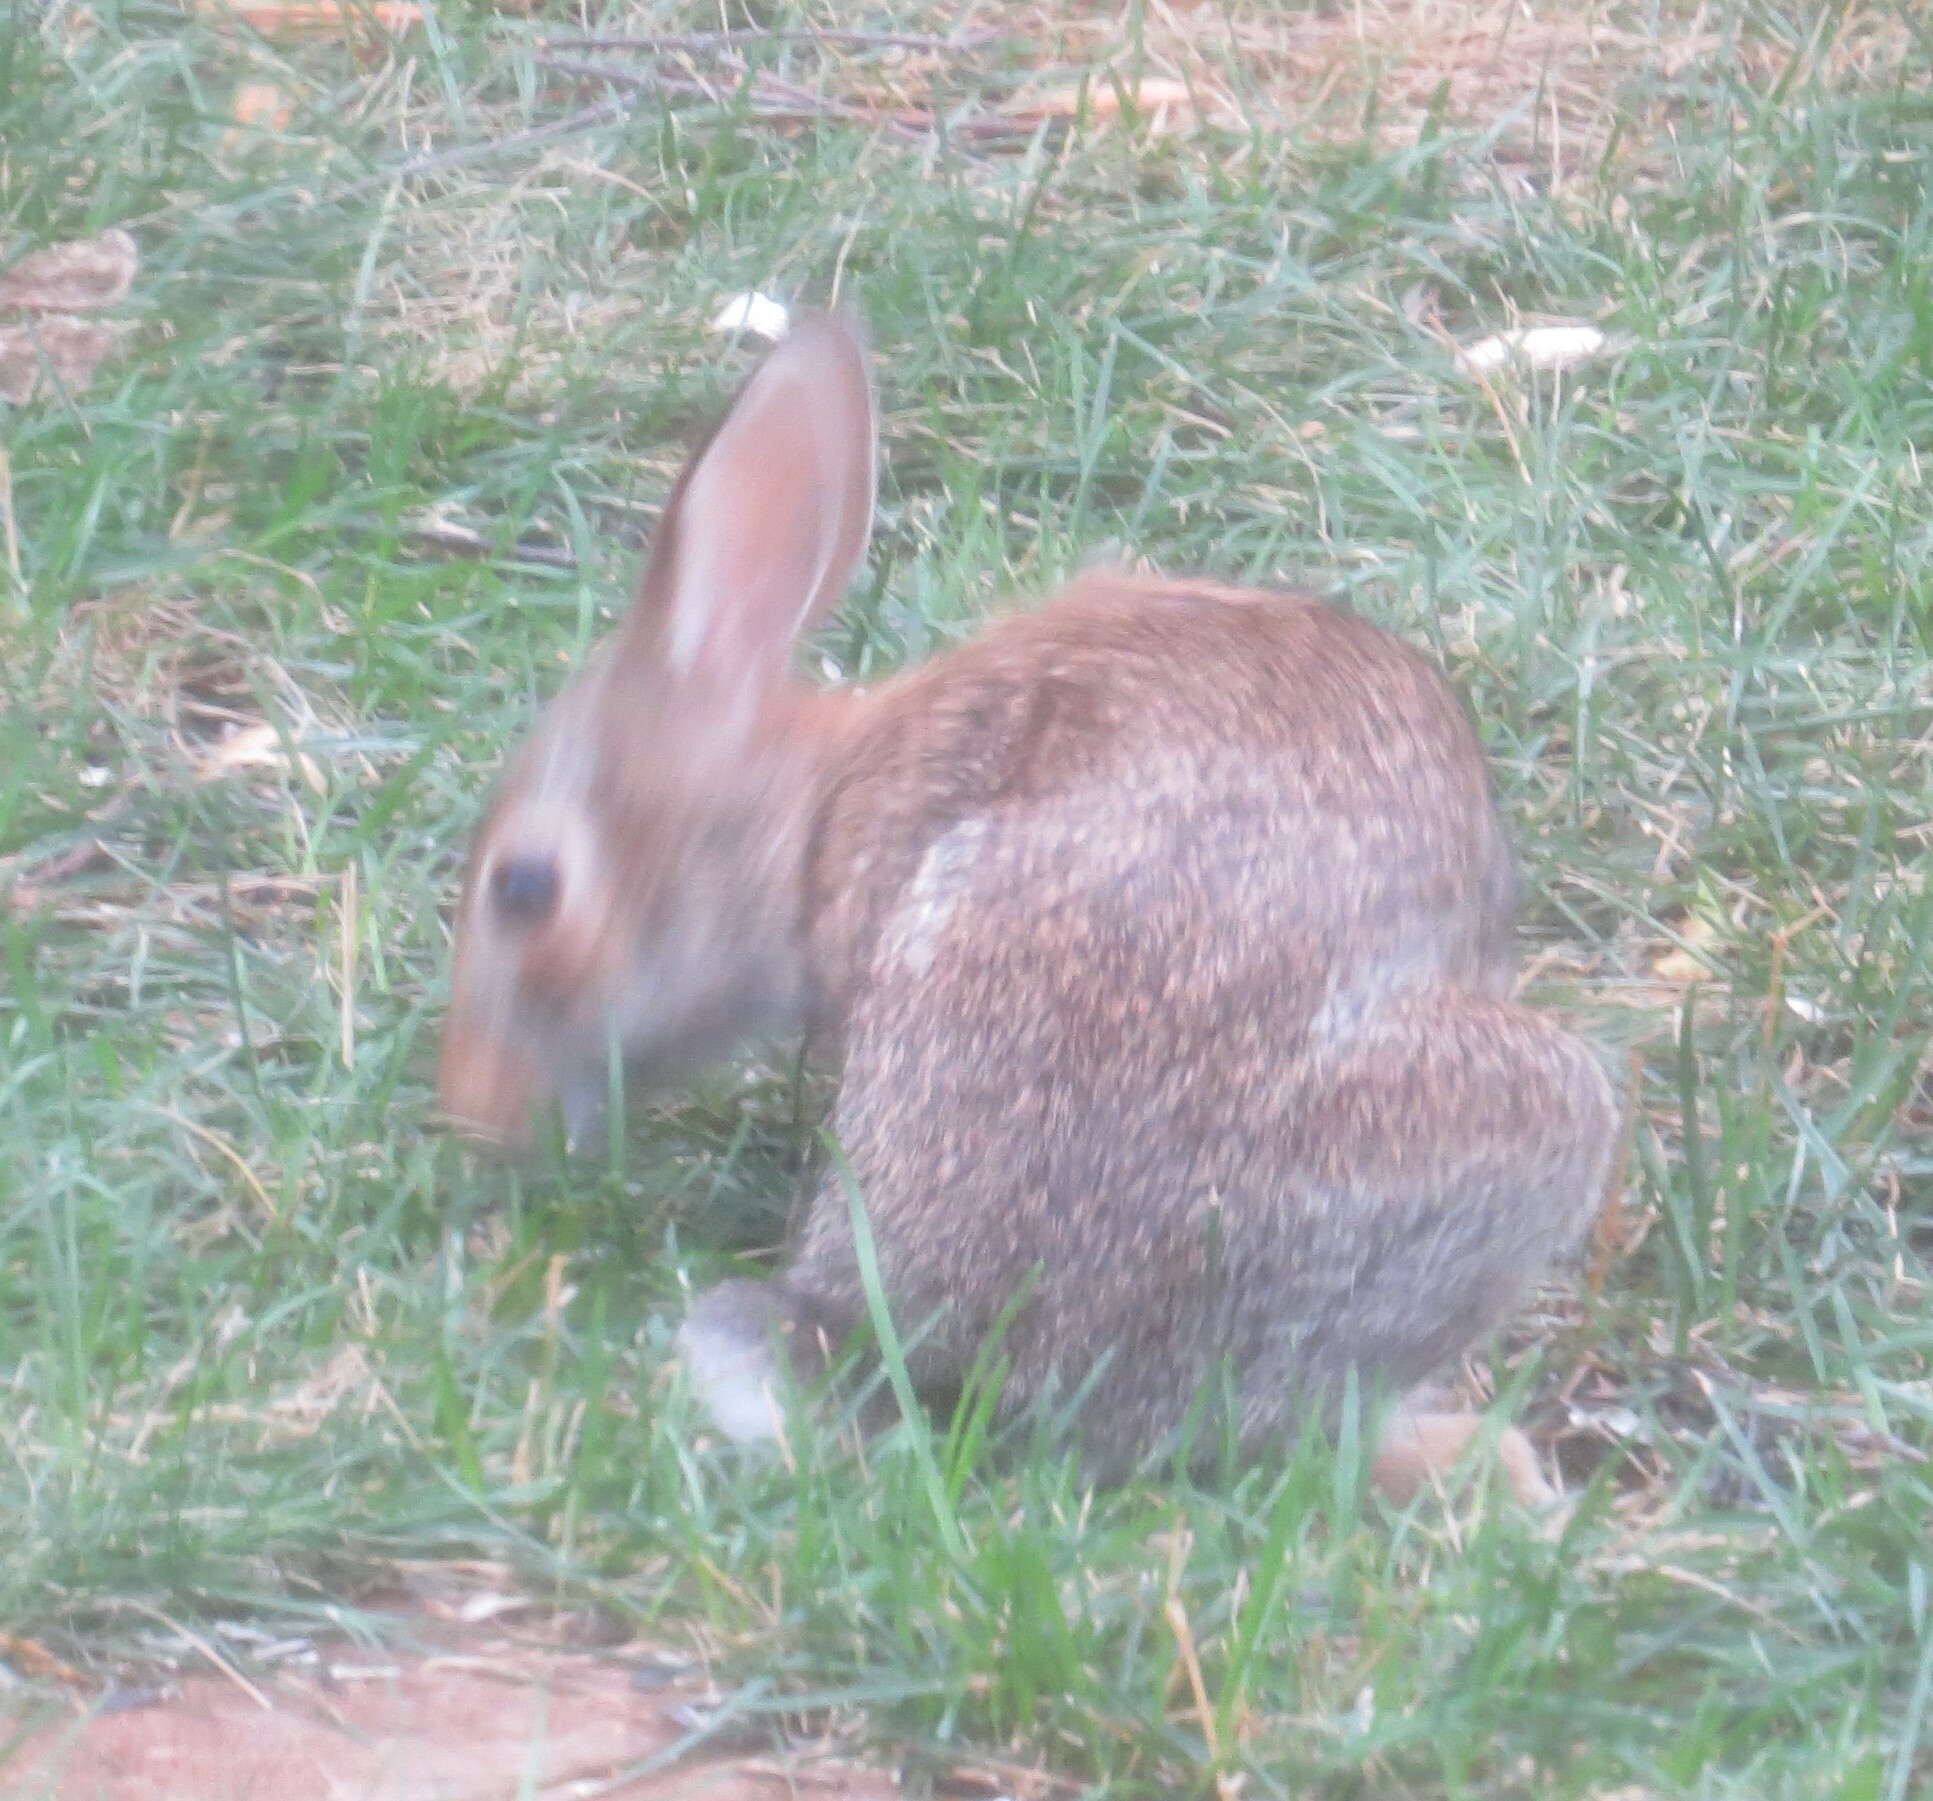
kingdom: Animalia
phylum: Chordata
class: Mammalia
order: Lagomorpha
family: Leporidae
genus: Sylvilagus
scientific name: Sylvilagus floridanus
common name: Eastern cottontail
